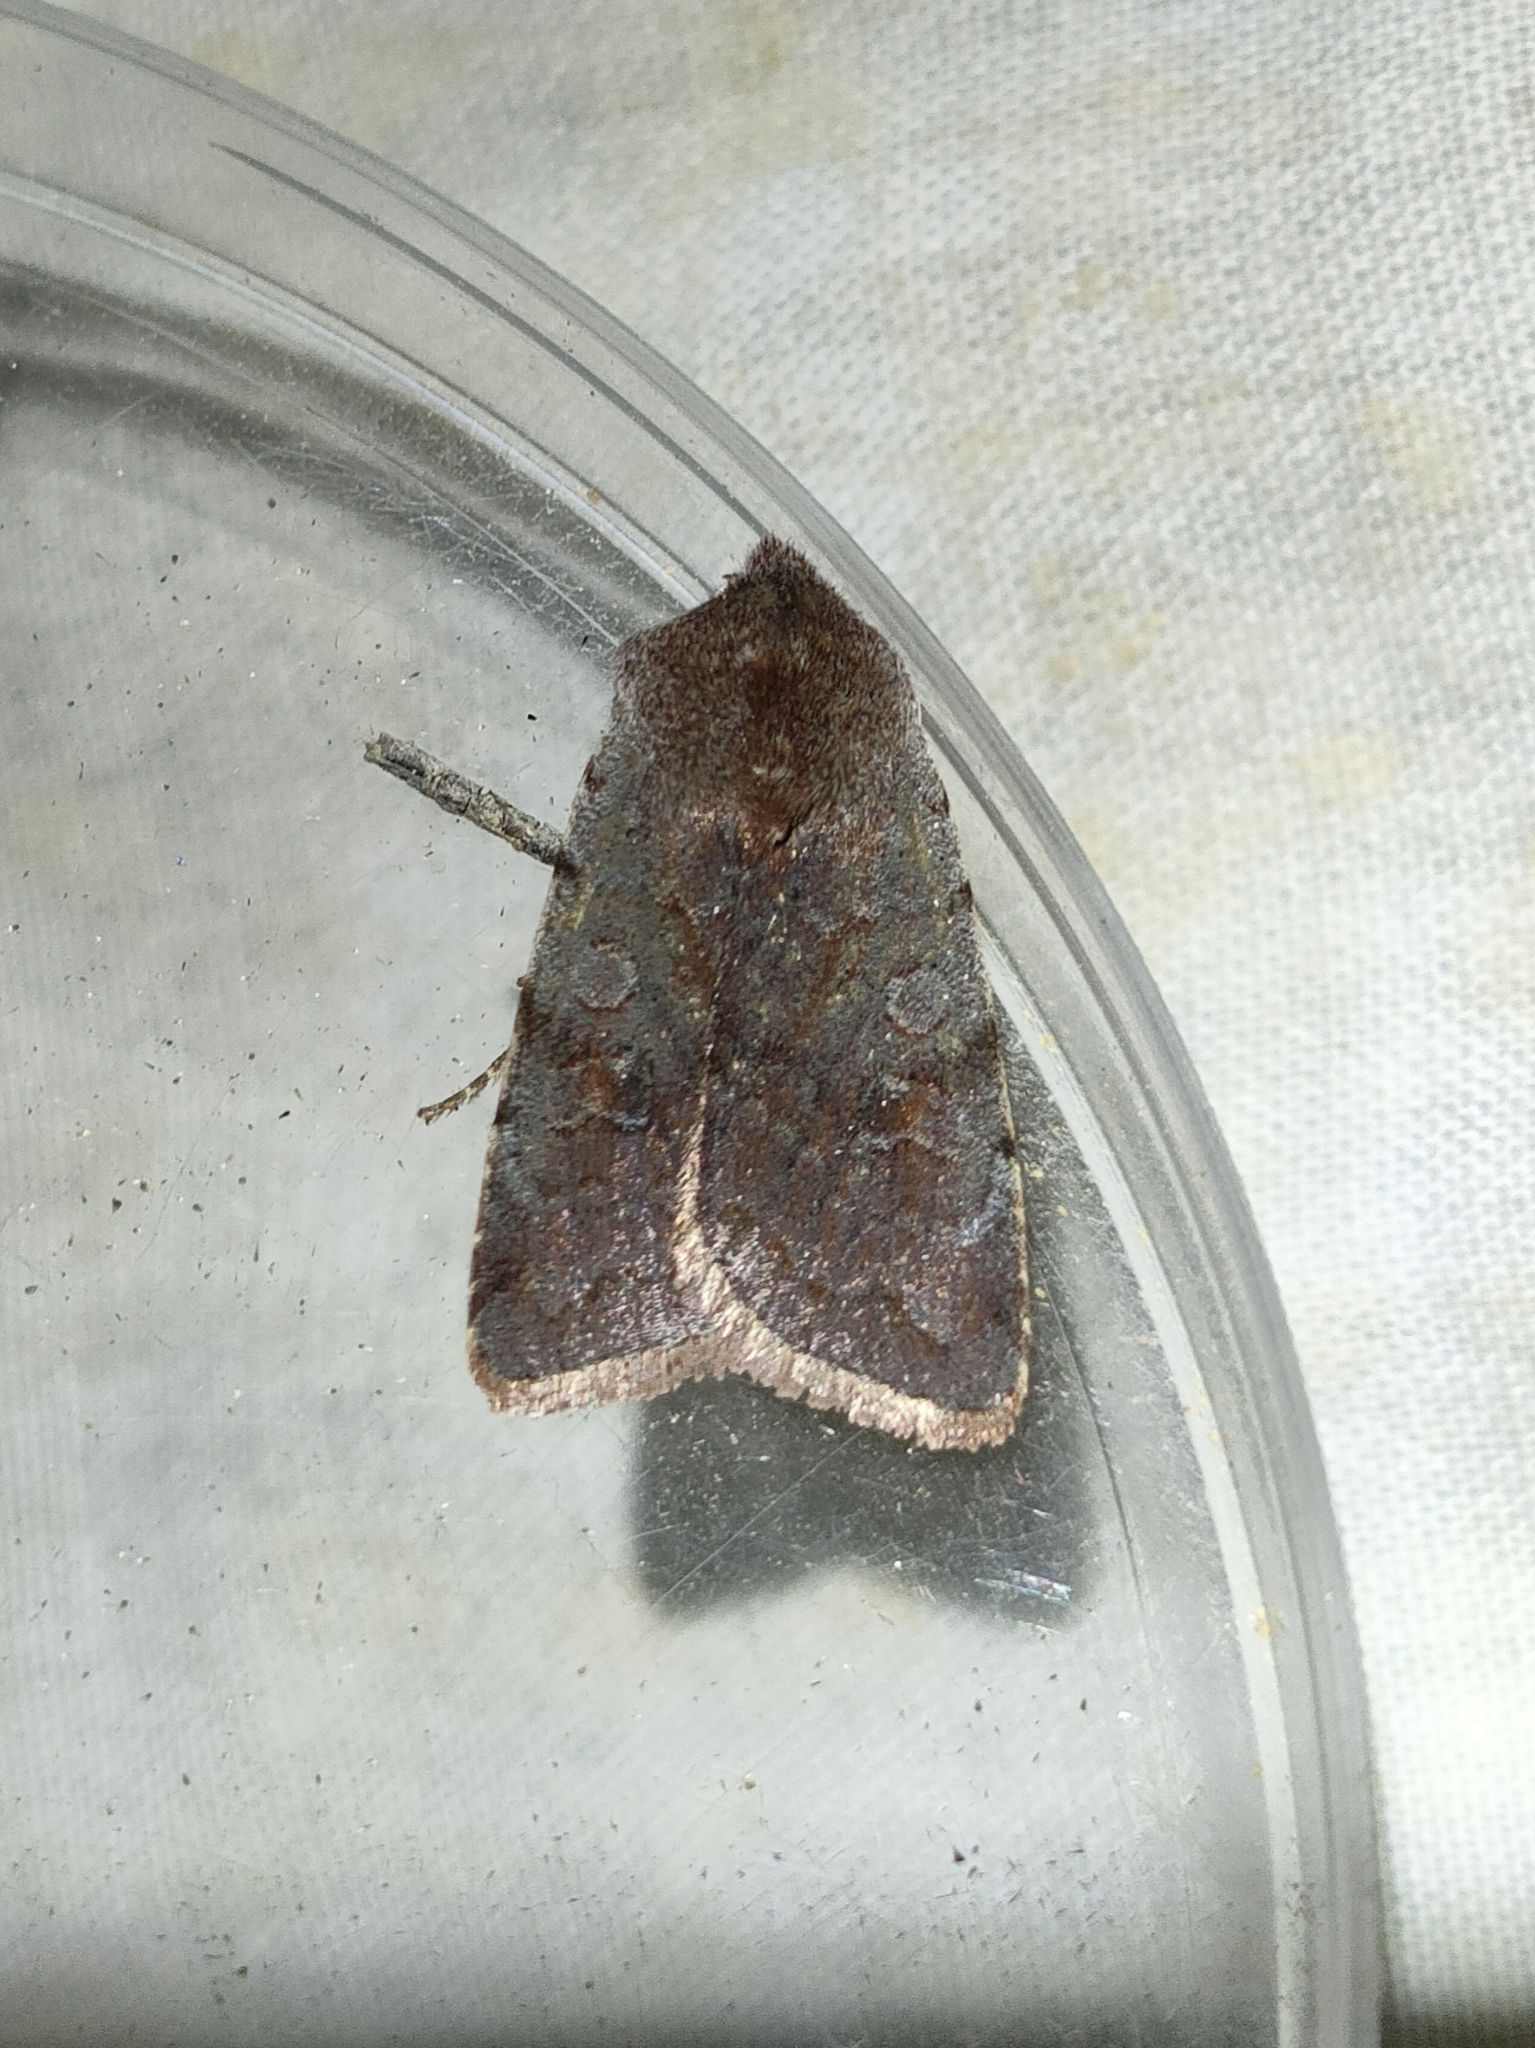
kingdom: Animalia
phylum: Arthropoda
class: Insecta
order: Lepidoptera
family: Noctuidae
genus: Cerastis
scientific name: Cerastis rubricosa
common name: Red chestnut
